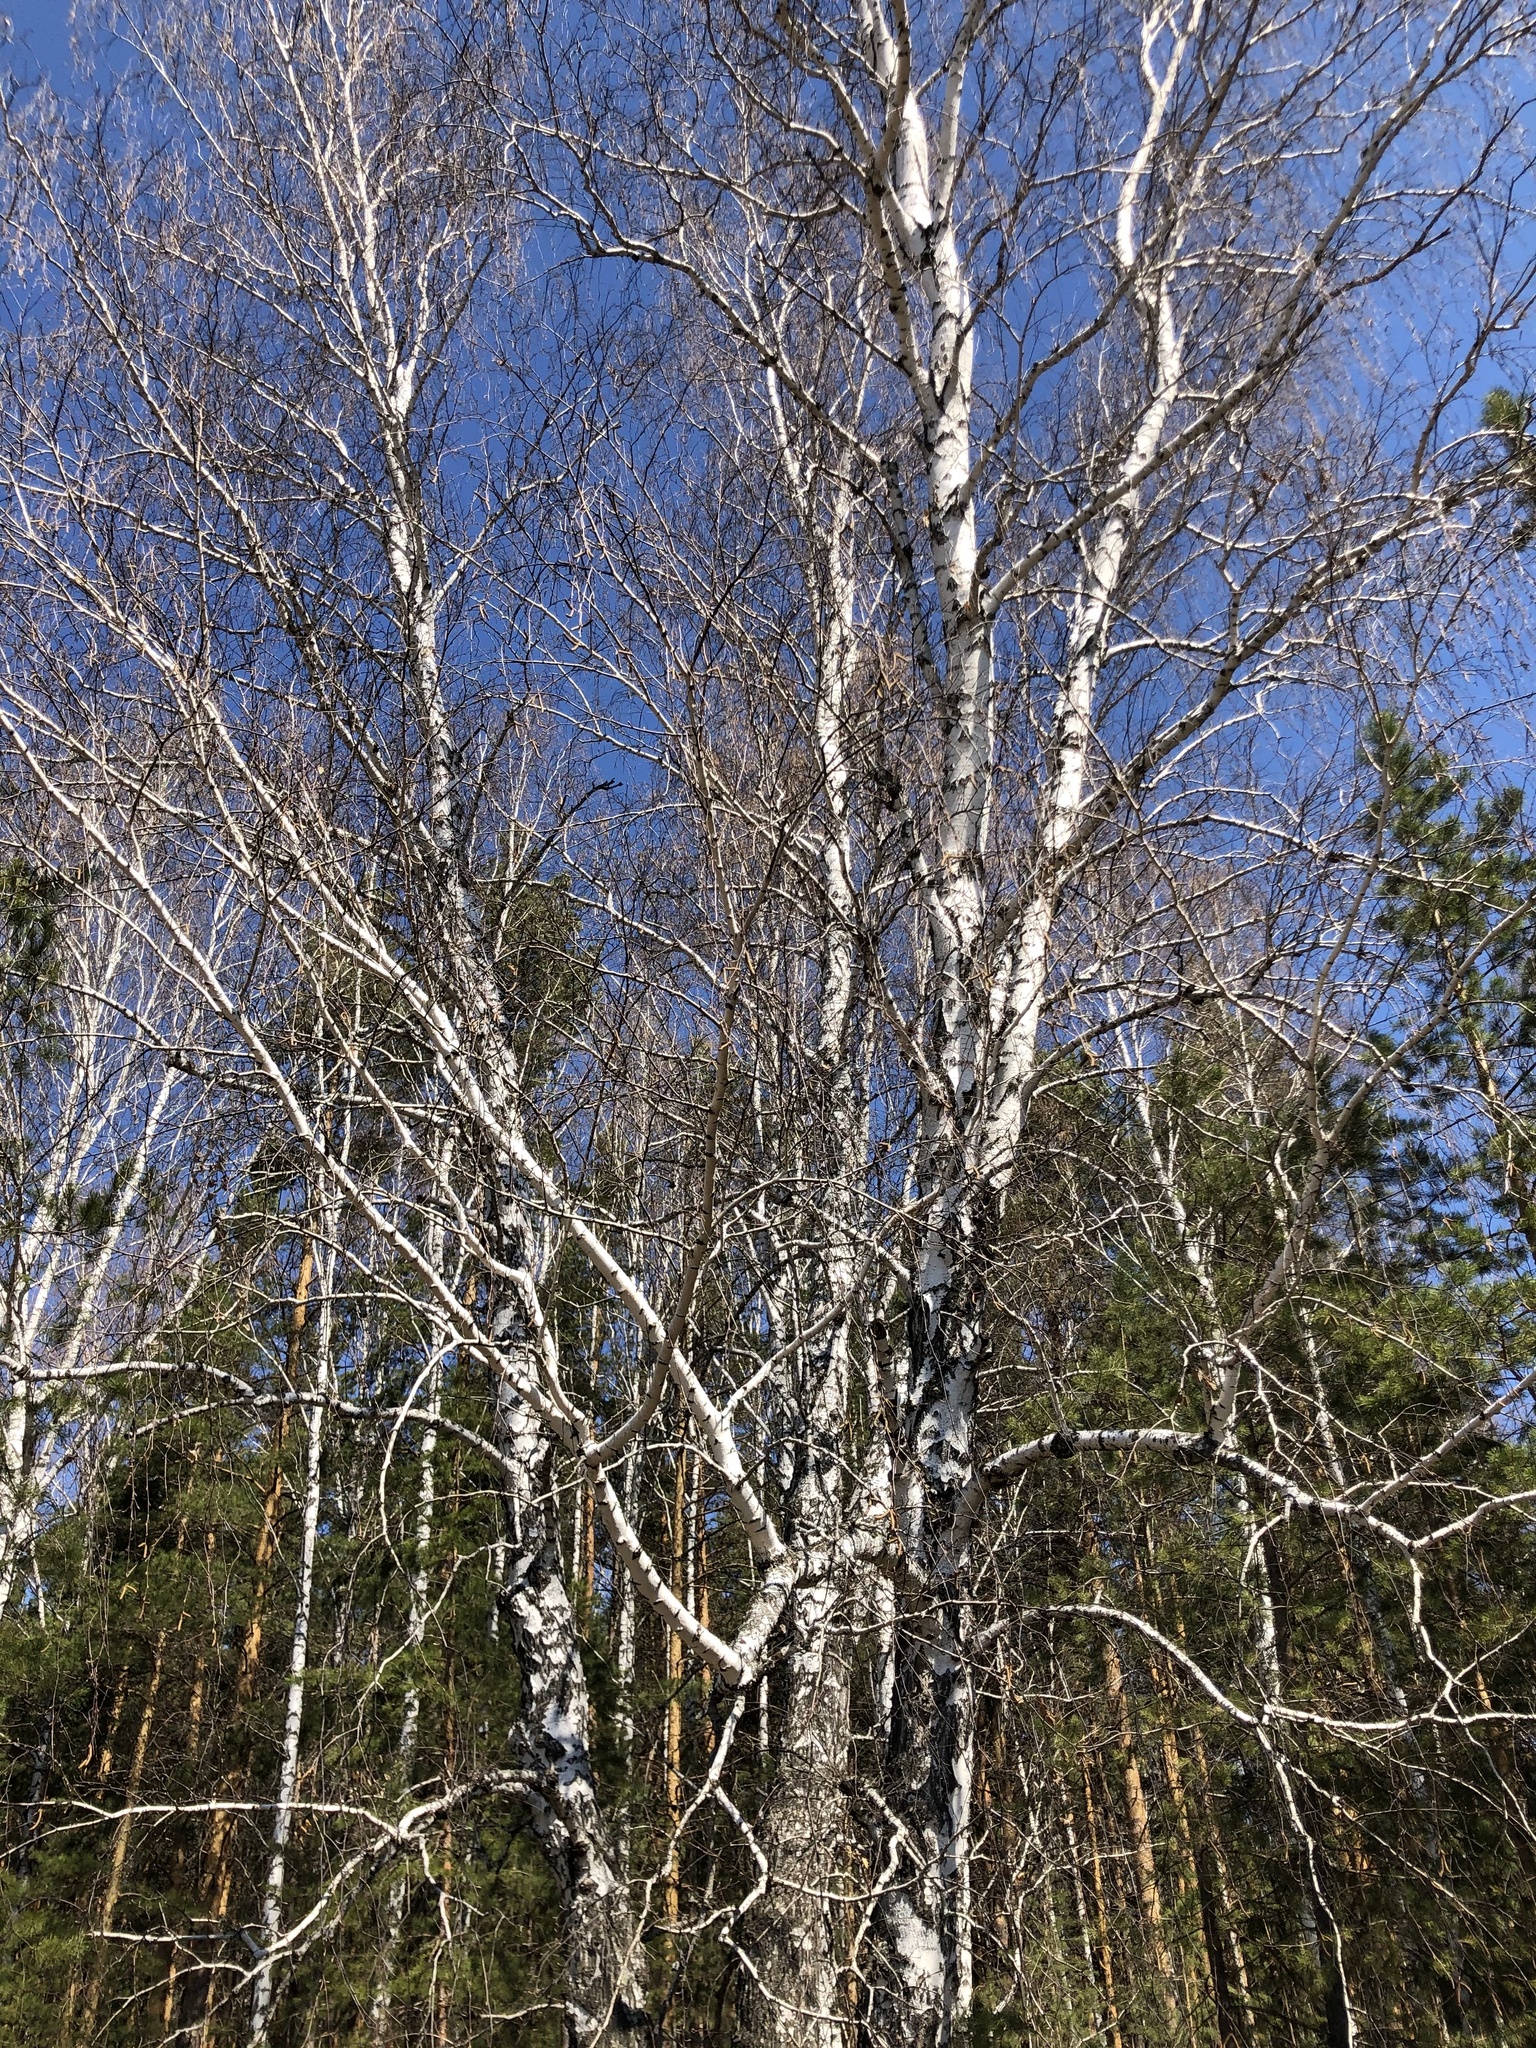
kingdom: Plantae
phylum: Tracheophyta
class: Magnoliopsida
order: Fagales
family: Betulaceae
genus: Betula
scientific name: Betula pendula
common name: Silver birch
